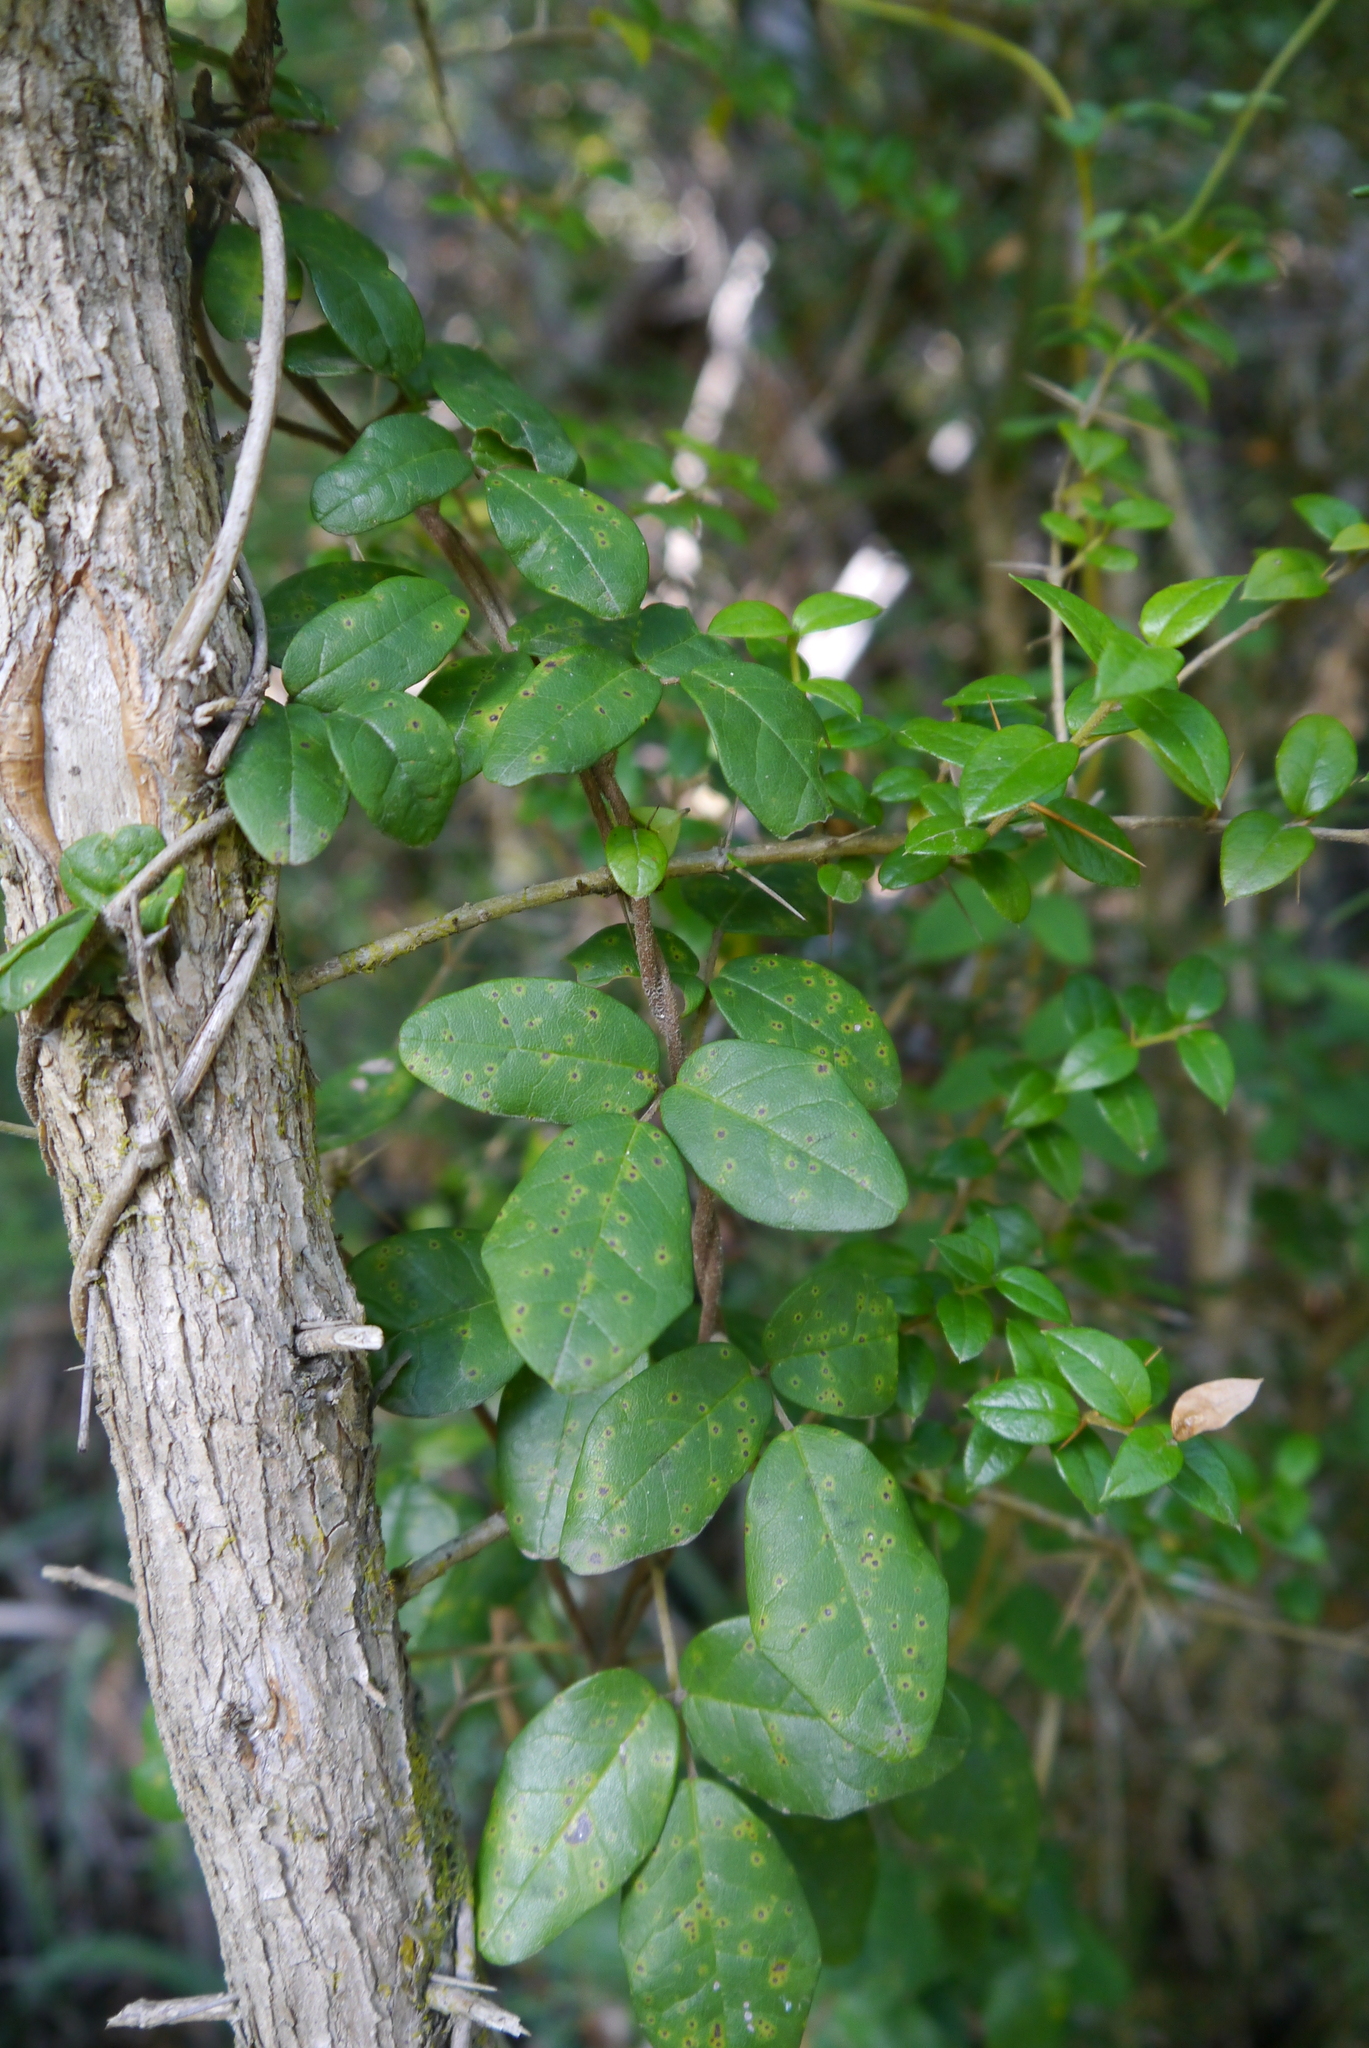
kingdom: Plantae
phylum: Tracheophyta
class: Magnoliopsida
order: Ranunculales
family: Lardizabalaceae
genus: Boquila
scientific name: Boquila trifoliolata
